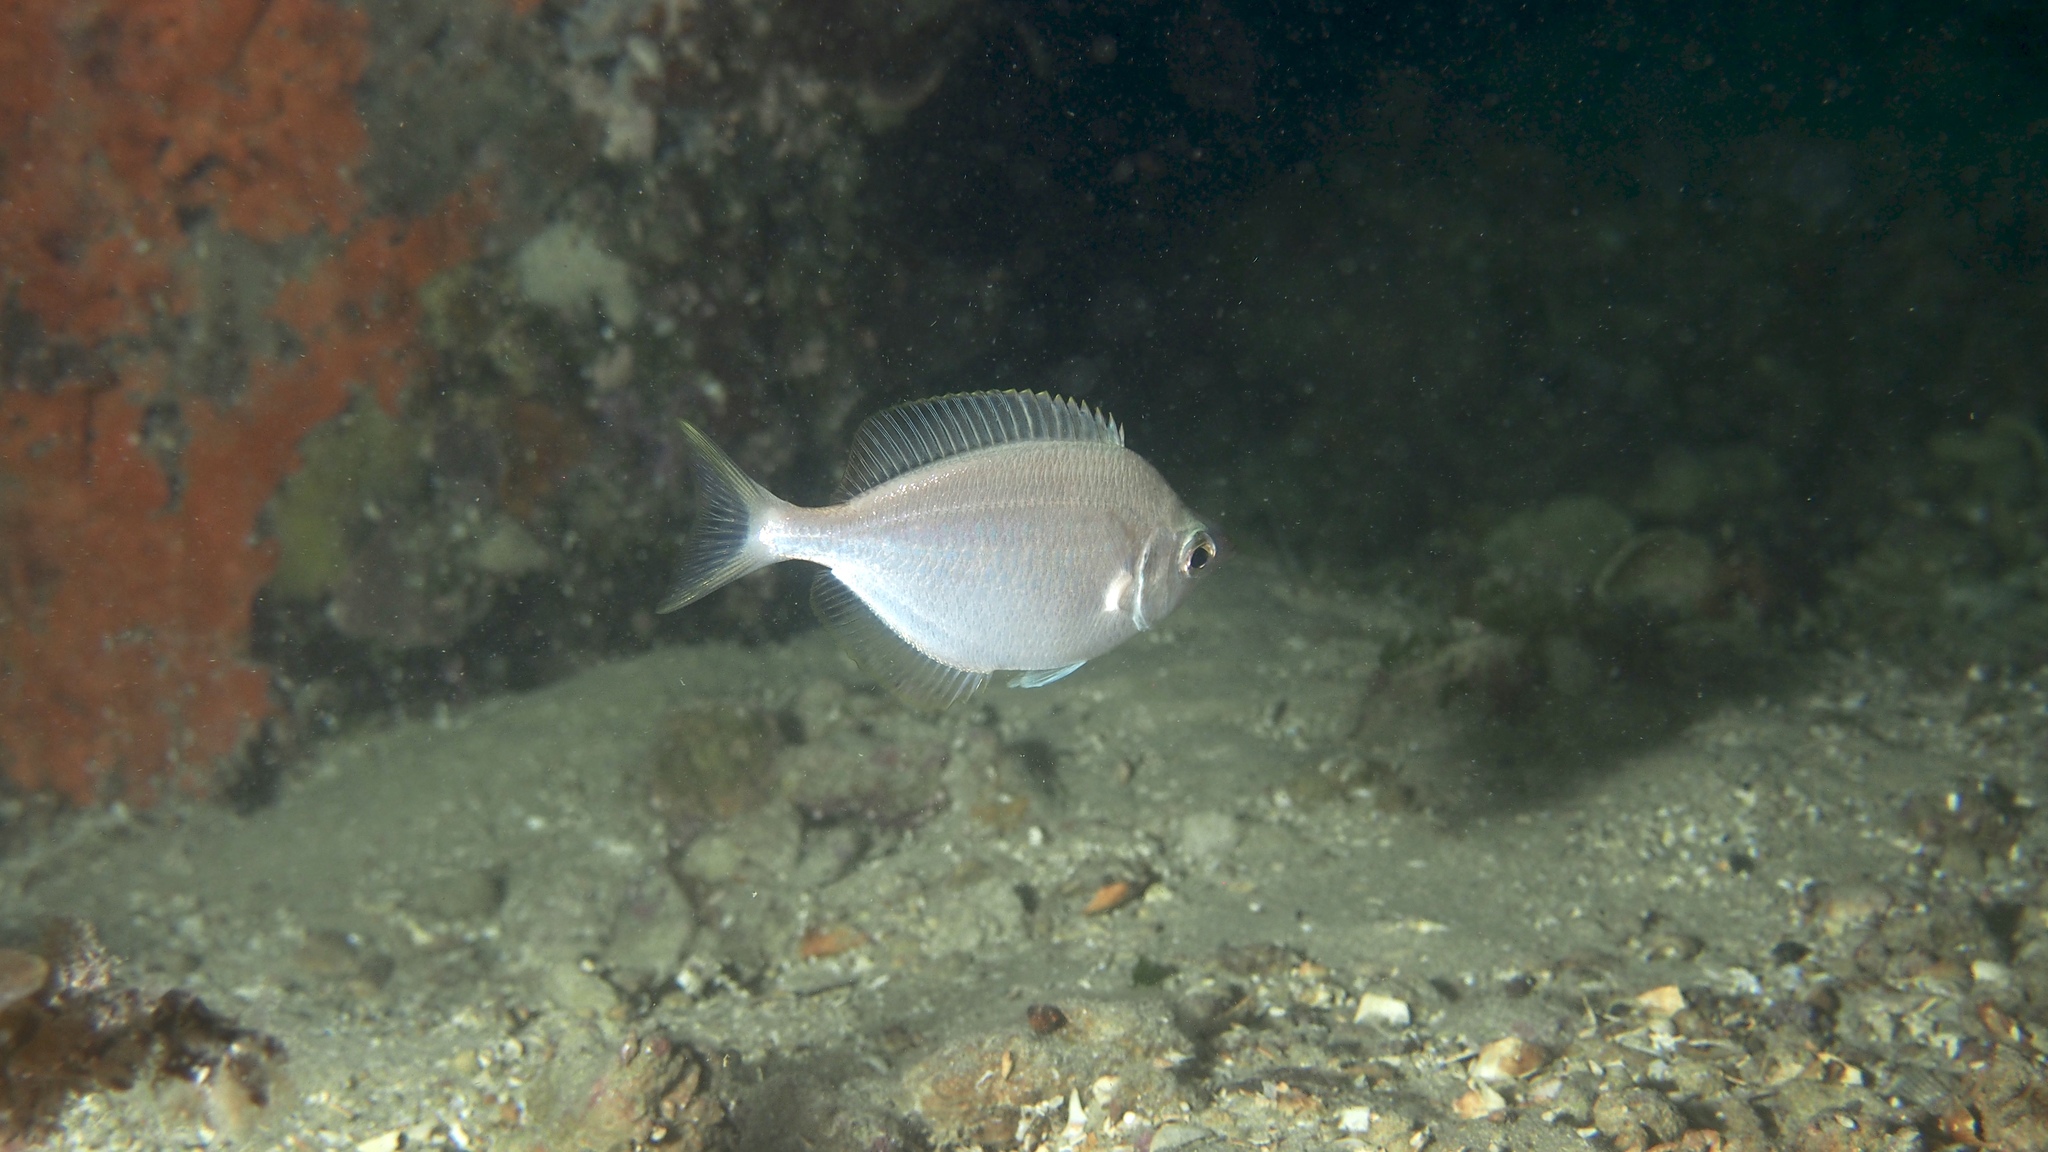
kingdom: Animalia
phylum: Chordata
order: Perciformes
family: Gerreidae
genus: Parequula
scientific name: Parequula melbournensis
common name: Silverbelly
